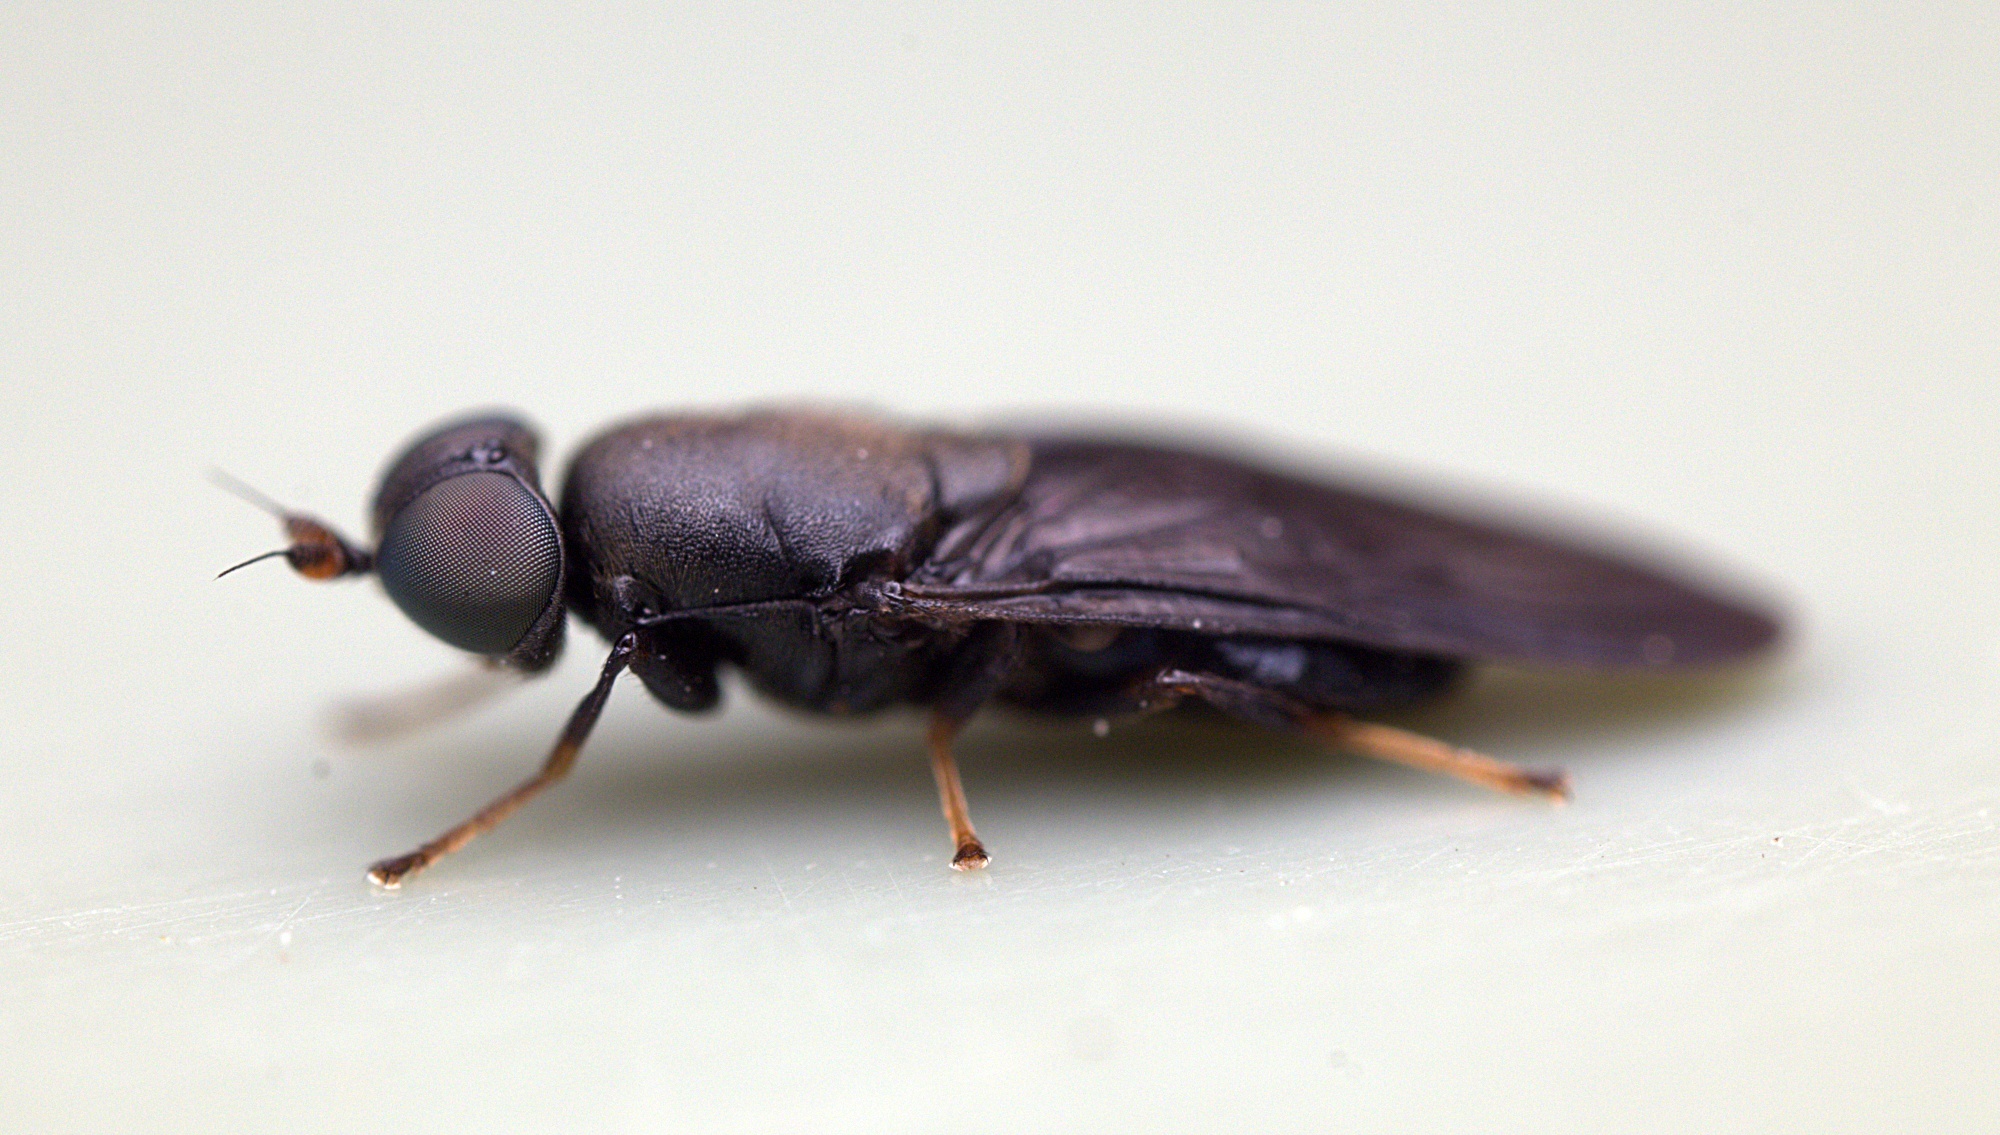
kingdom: Animalia
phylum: Arthropoda
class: Insecta
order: Diptera
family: Stratiomyidae
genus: Dysbiota
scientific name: Dysbiota parvula
